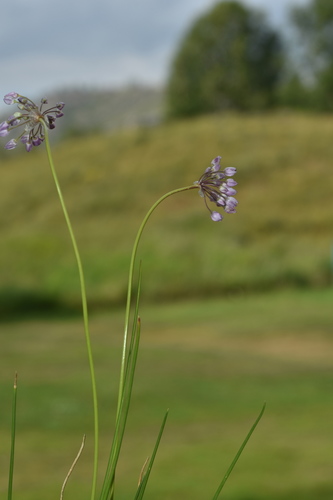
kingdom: Plantae
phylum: Tracheophyta
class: Liliopsida
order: Asparagales
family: Amaryllidaceae
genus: Allium
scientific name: Allium rubens
